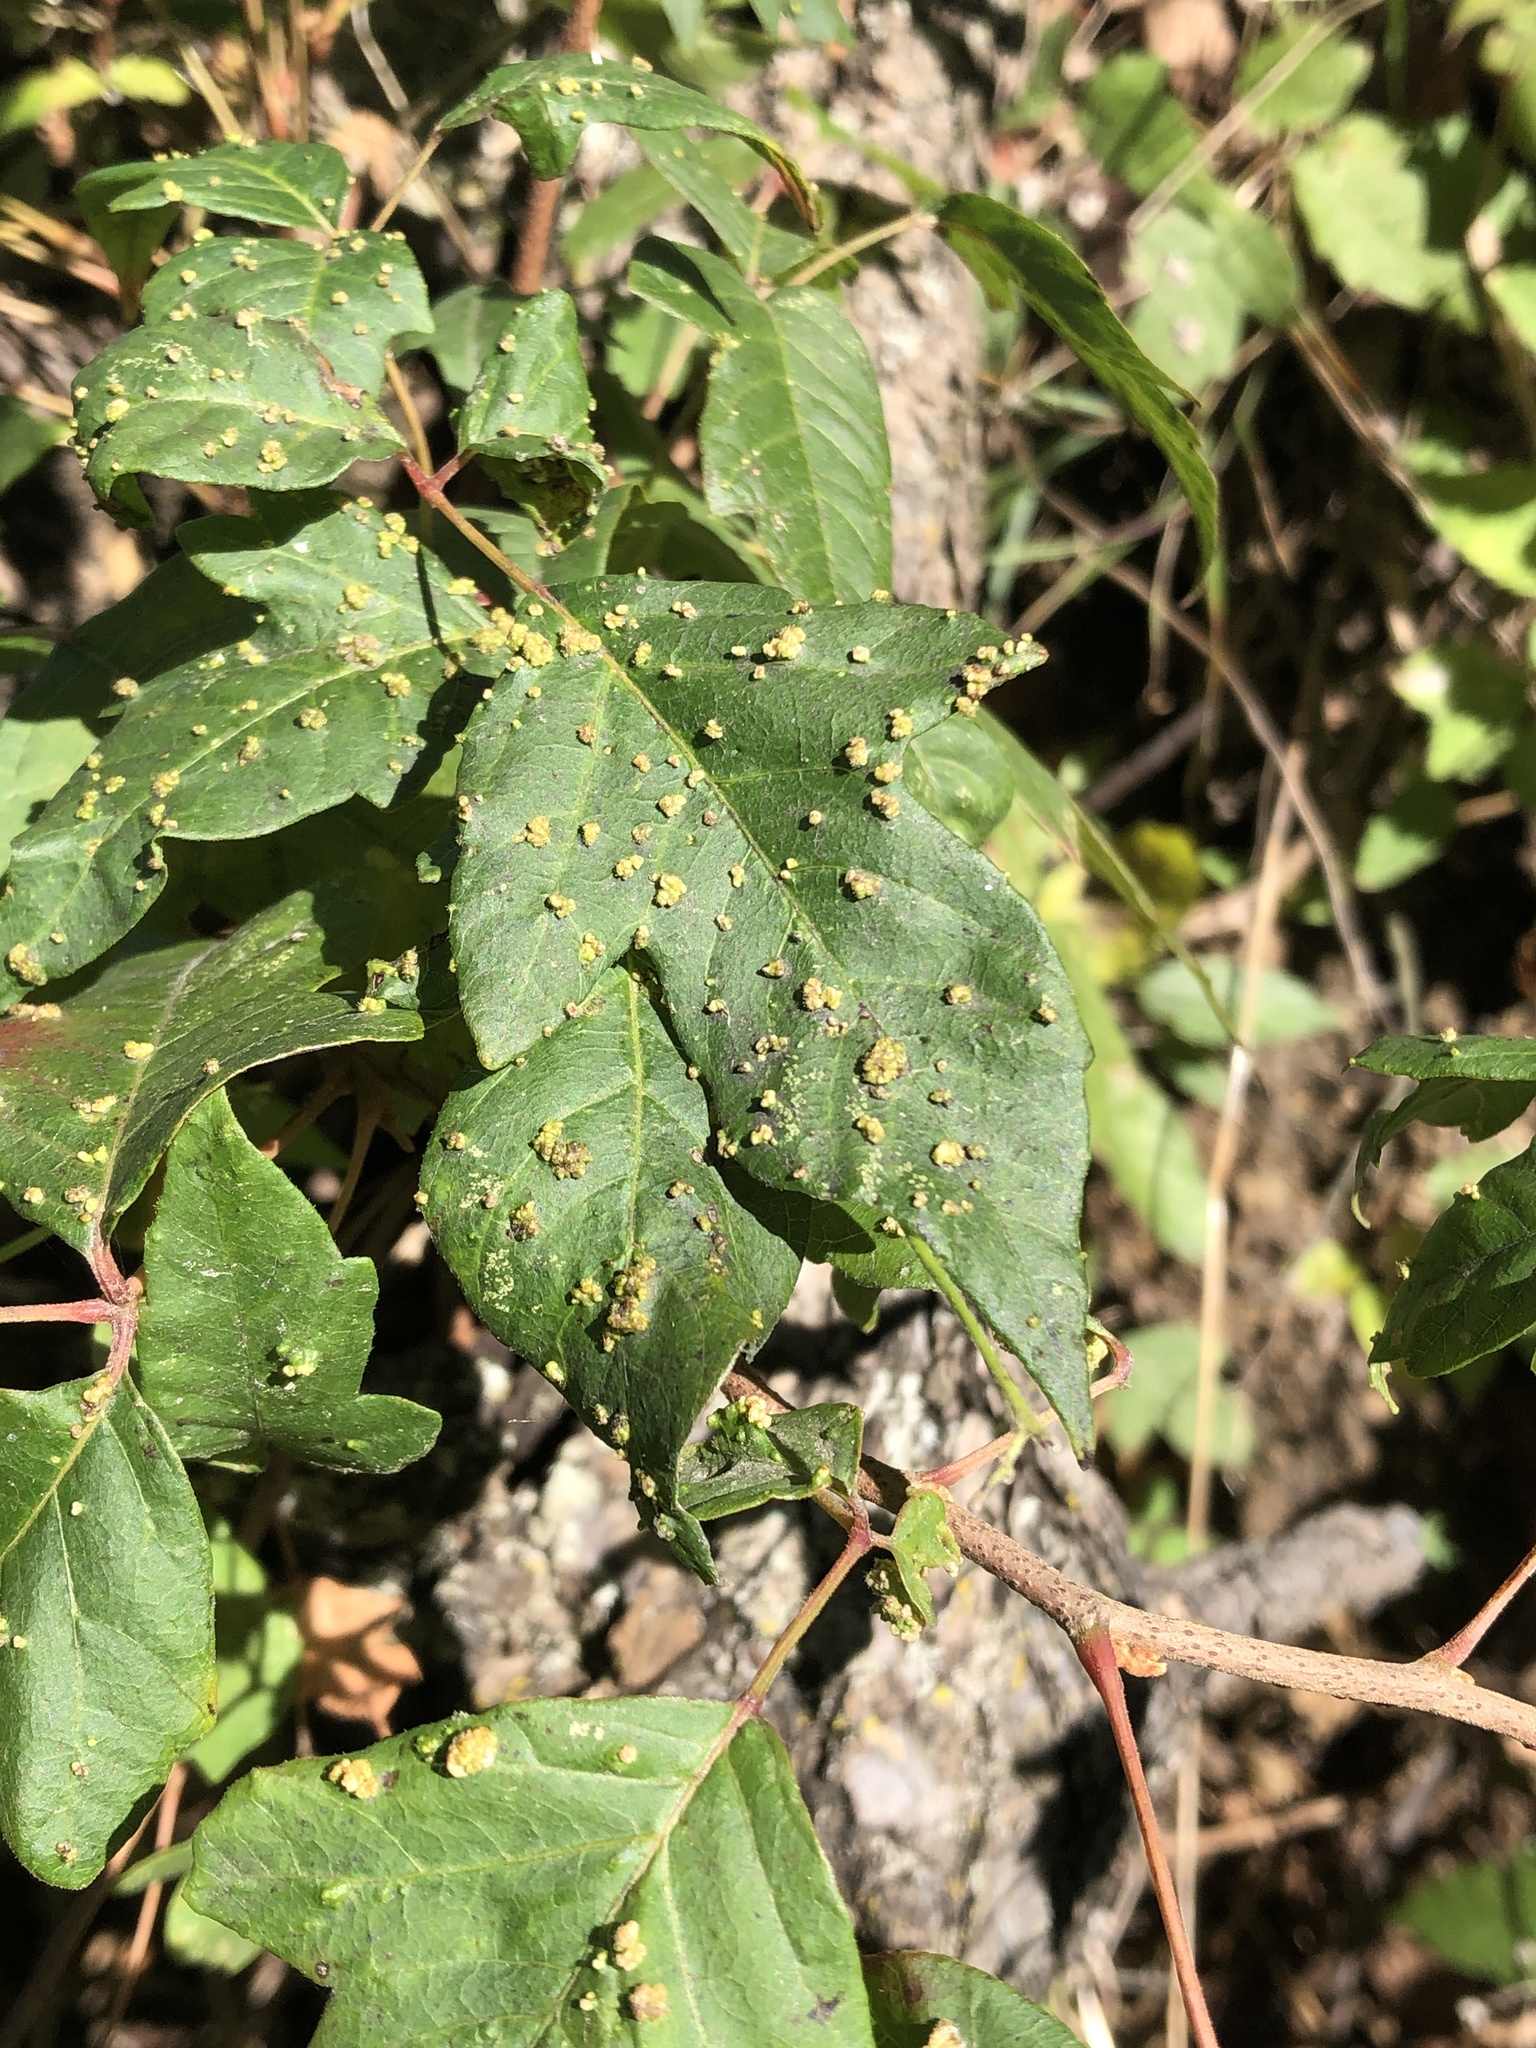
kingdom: Animalia
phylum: Arthropoda
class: Arachnida
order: Trombidiformes
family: Eriophyidae
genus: Aculops
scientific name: Aculops
